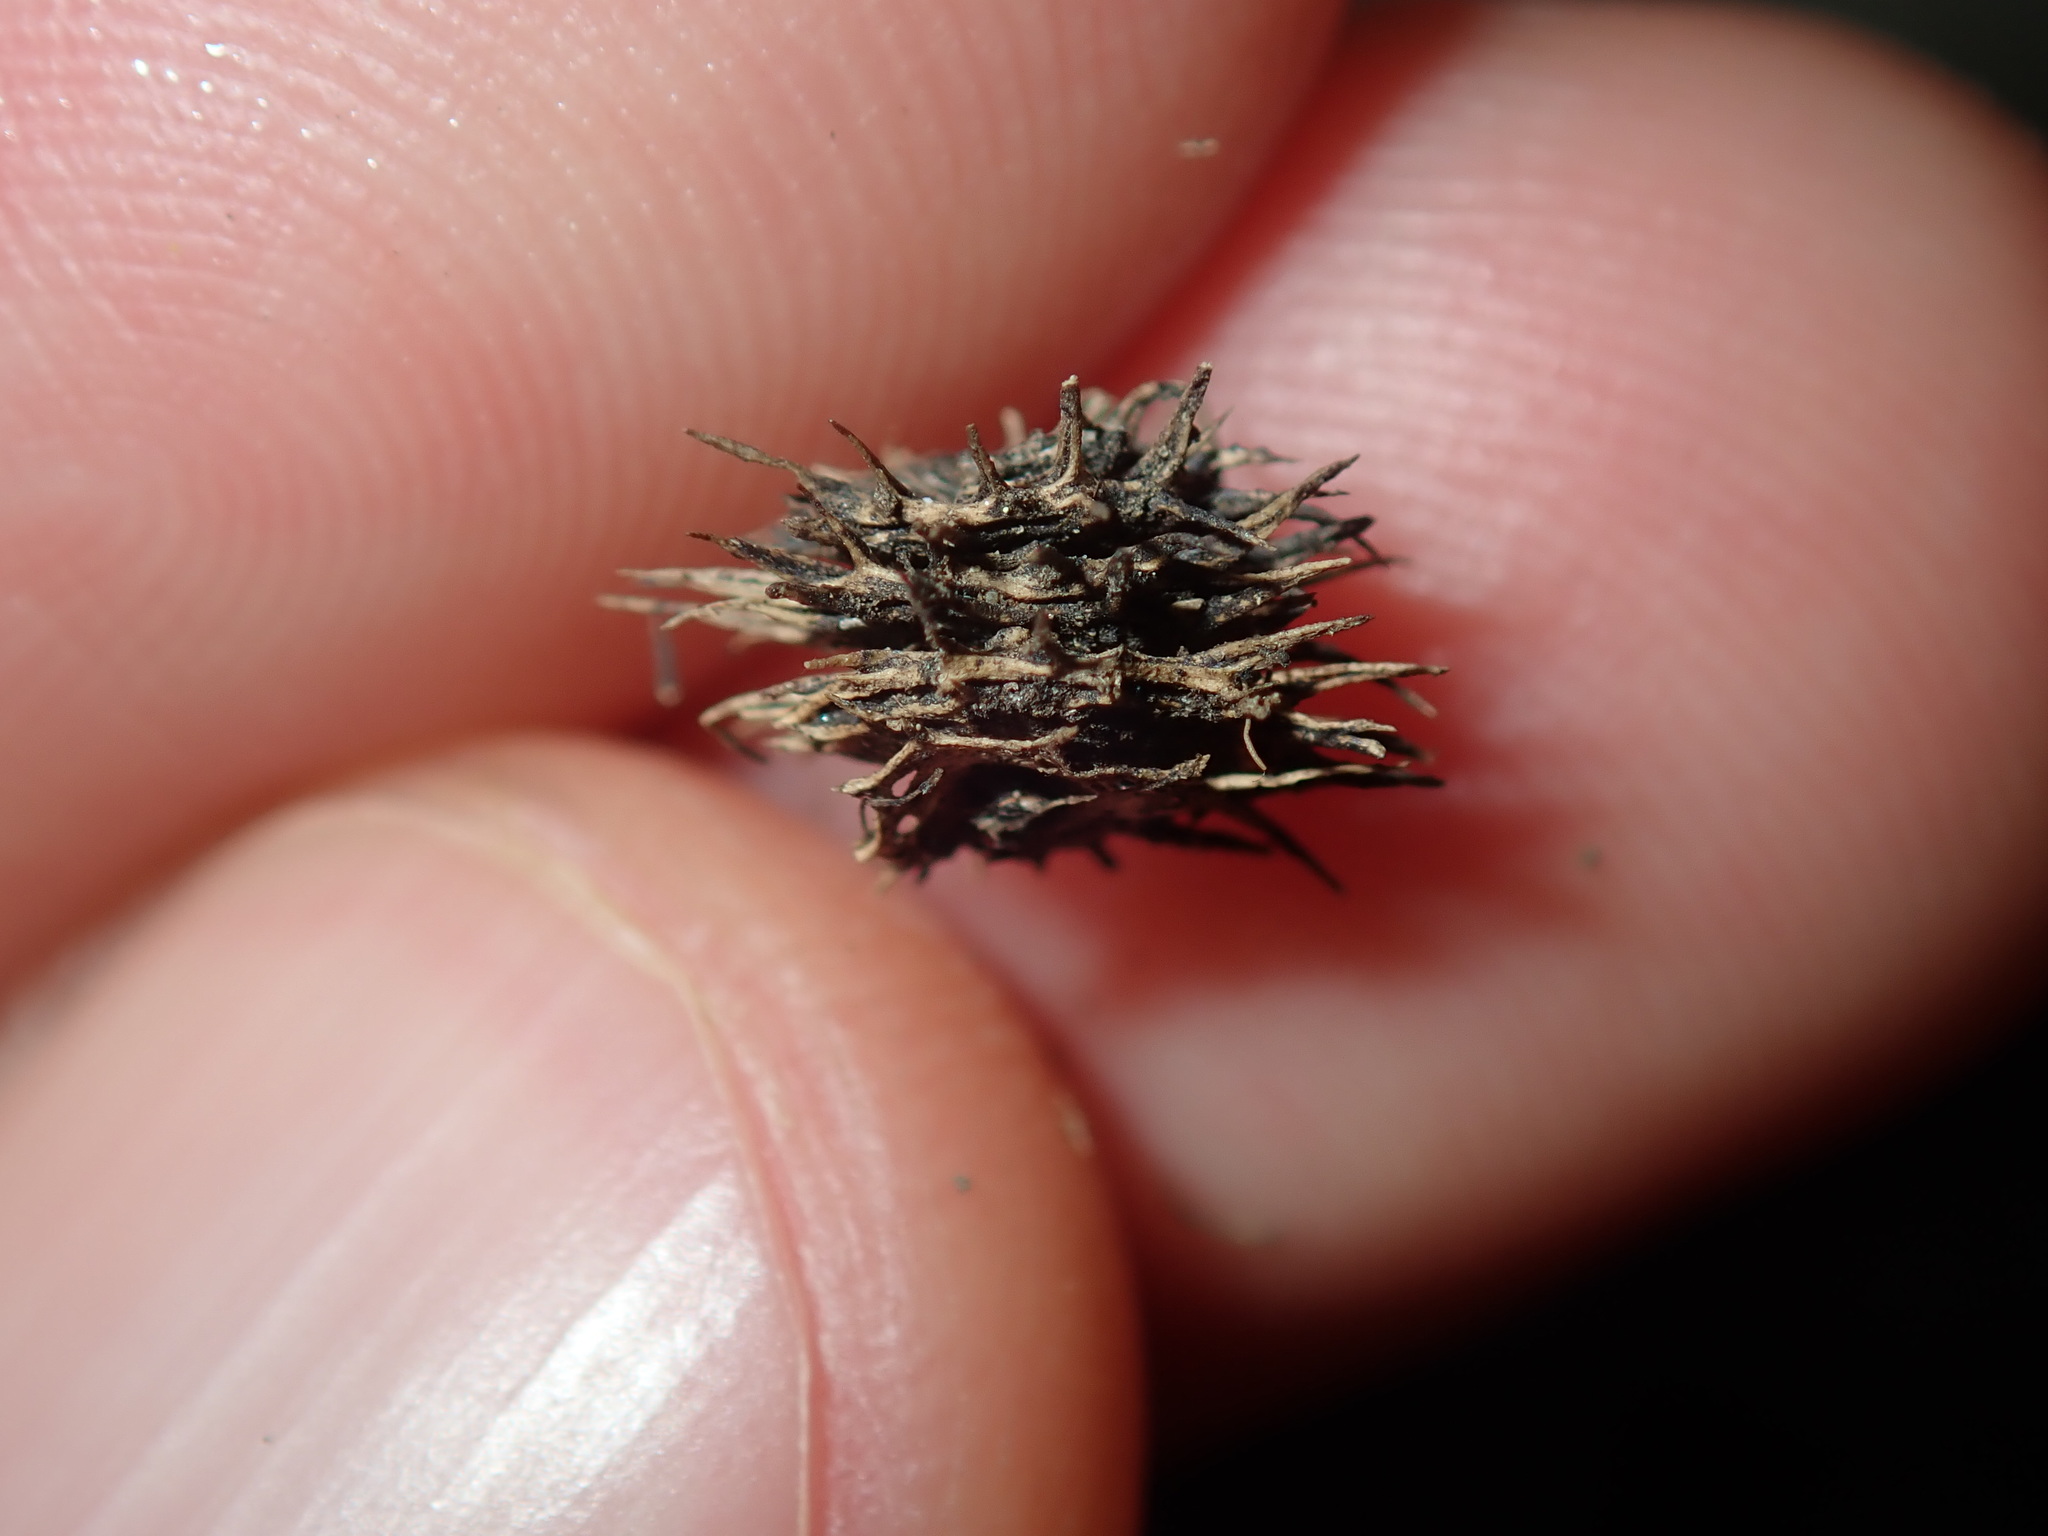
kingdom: Plantae
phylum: Tracheophyta
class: Magnoliopsida
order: Fabales
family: Fabaceae
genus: Medicago
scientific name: Medicago polymorpha
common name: Burclover
